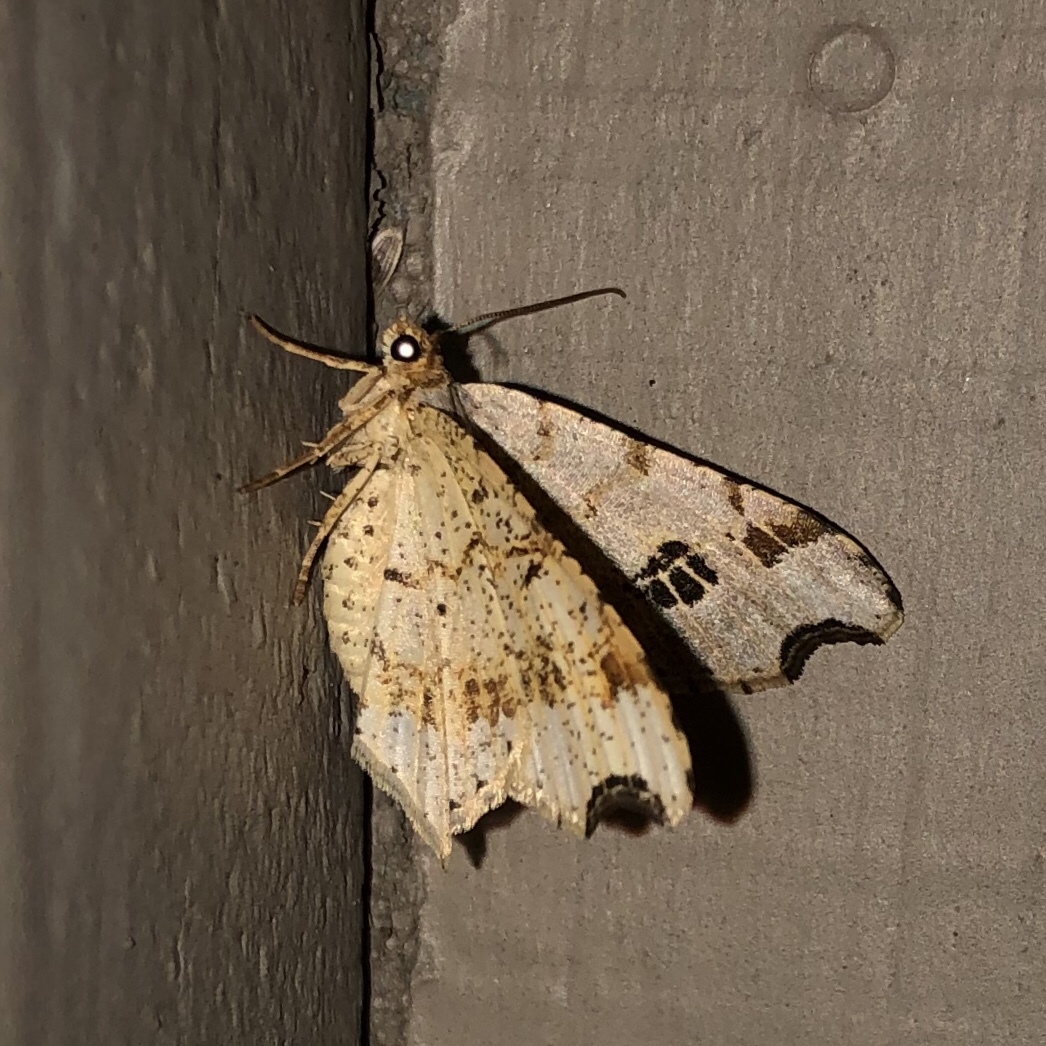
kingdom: Animalia
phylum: Arthropoda
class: Insecta
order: Lepidoptera
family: Geometridae
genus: Macaria
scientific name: Macaria aemulataria
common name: Common angle
